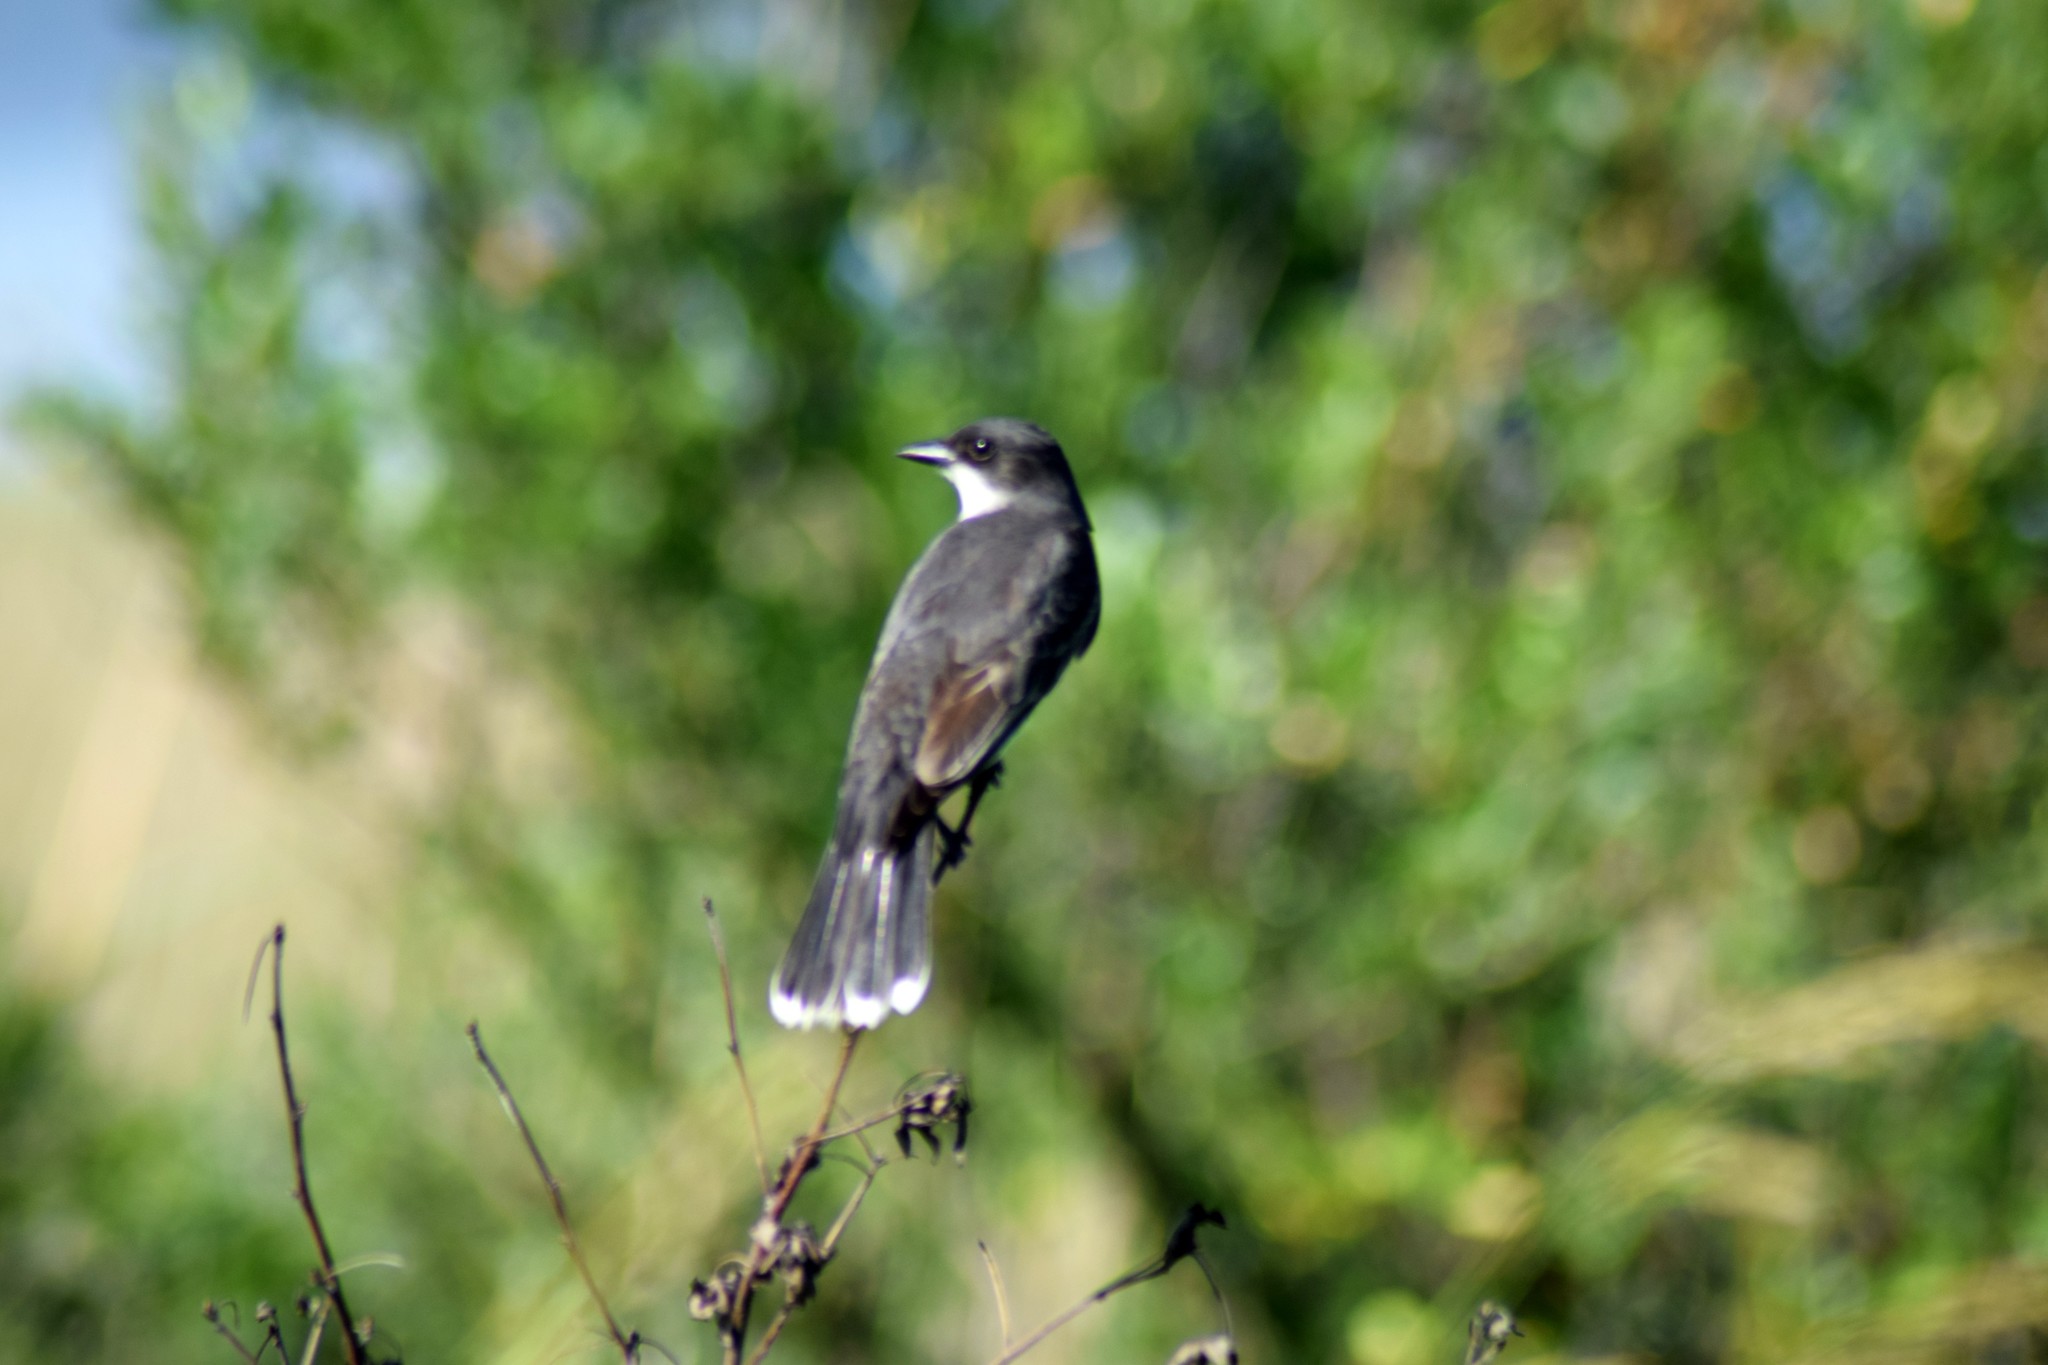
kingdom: Animalia
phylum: Chordata
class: Aves
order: Passeriformes
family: Tyrannidae
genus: Tyrannus
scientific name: Tyrannus tyrannus
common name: Eastern kingbird
